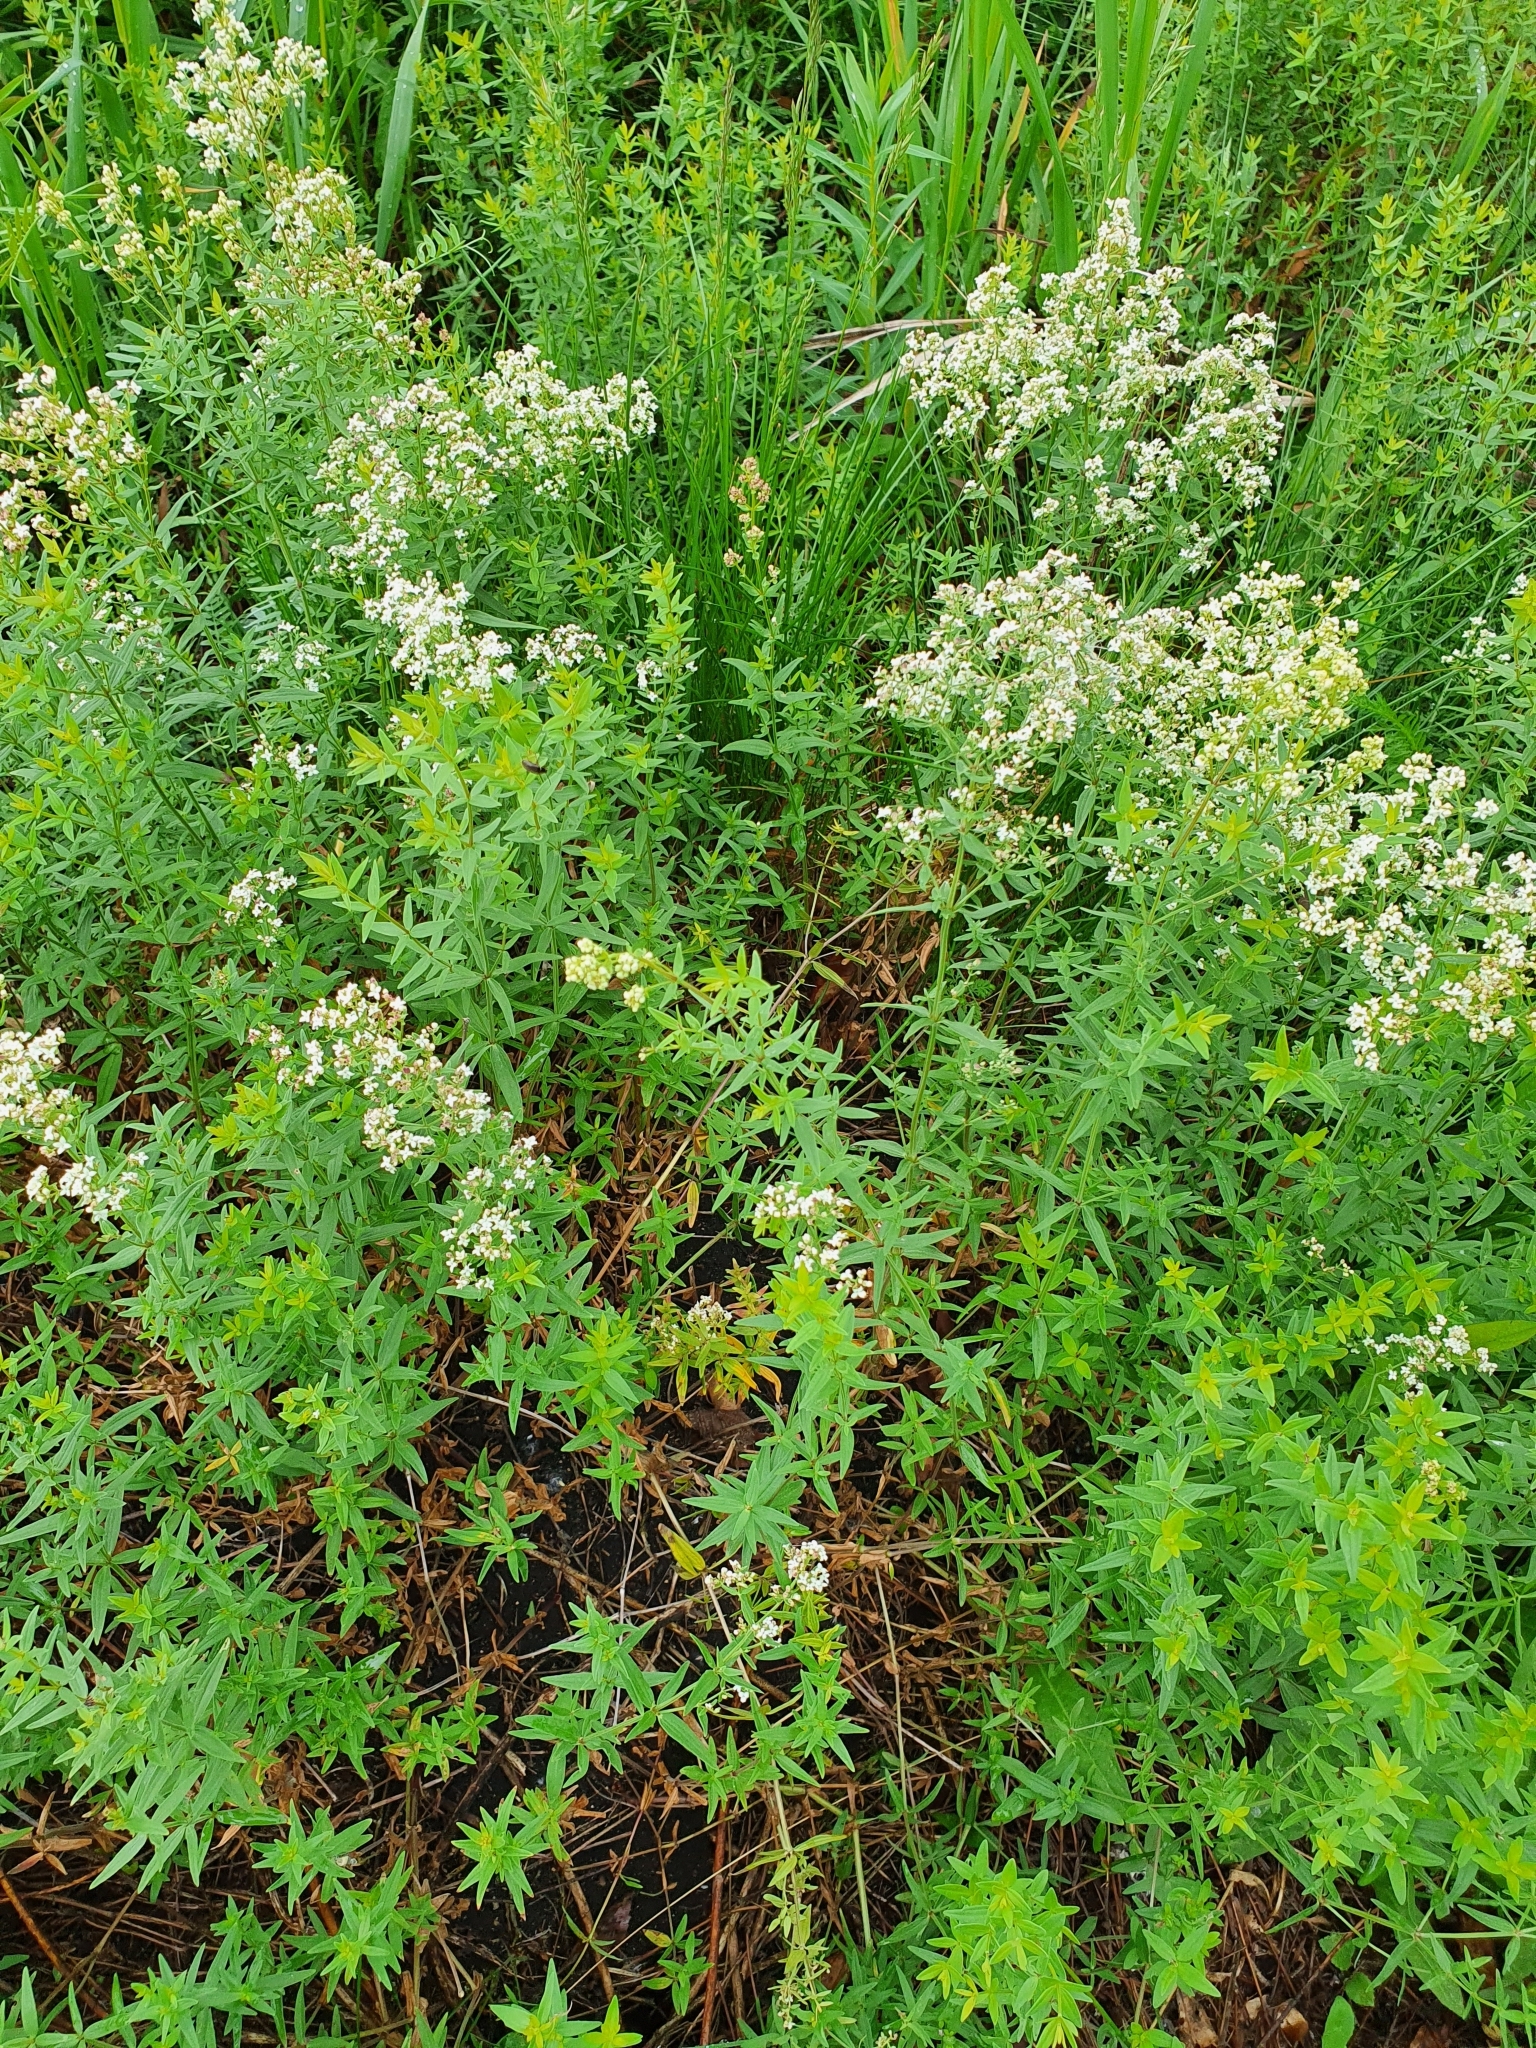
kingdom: Plantae
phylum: Tracheophyta
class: Magnoliopsida
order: Gentianales
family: Rubiaceae
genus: Galium
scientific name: Galium boreale
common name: Northern bedstraw
